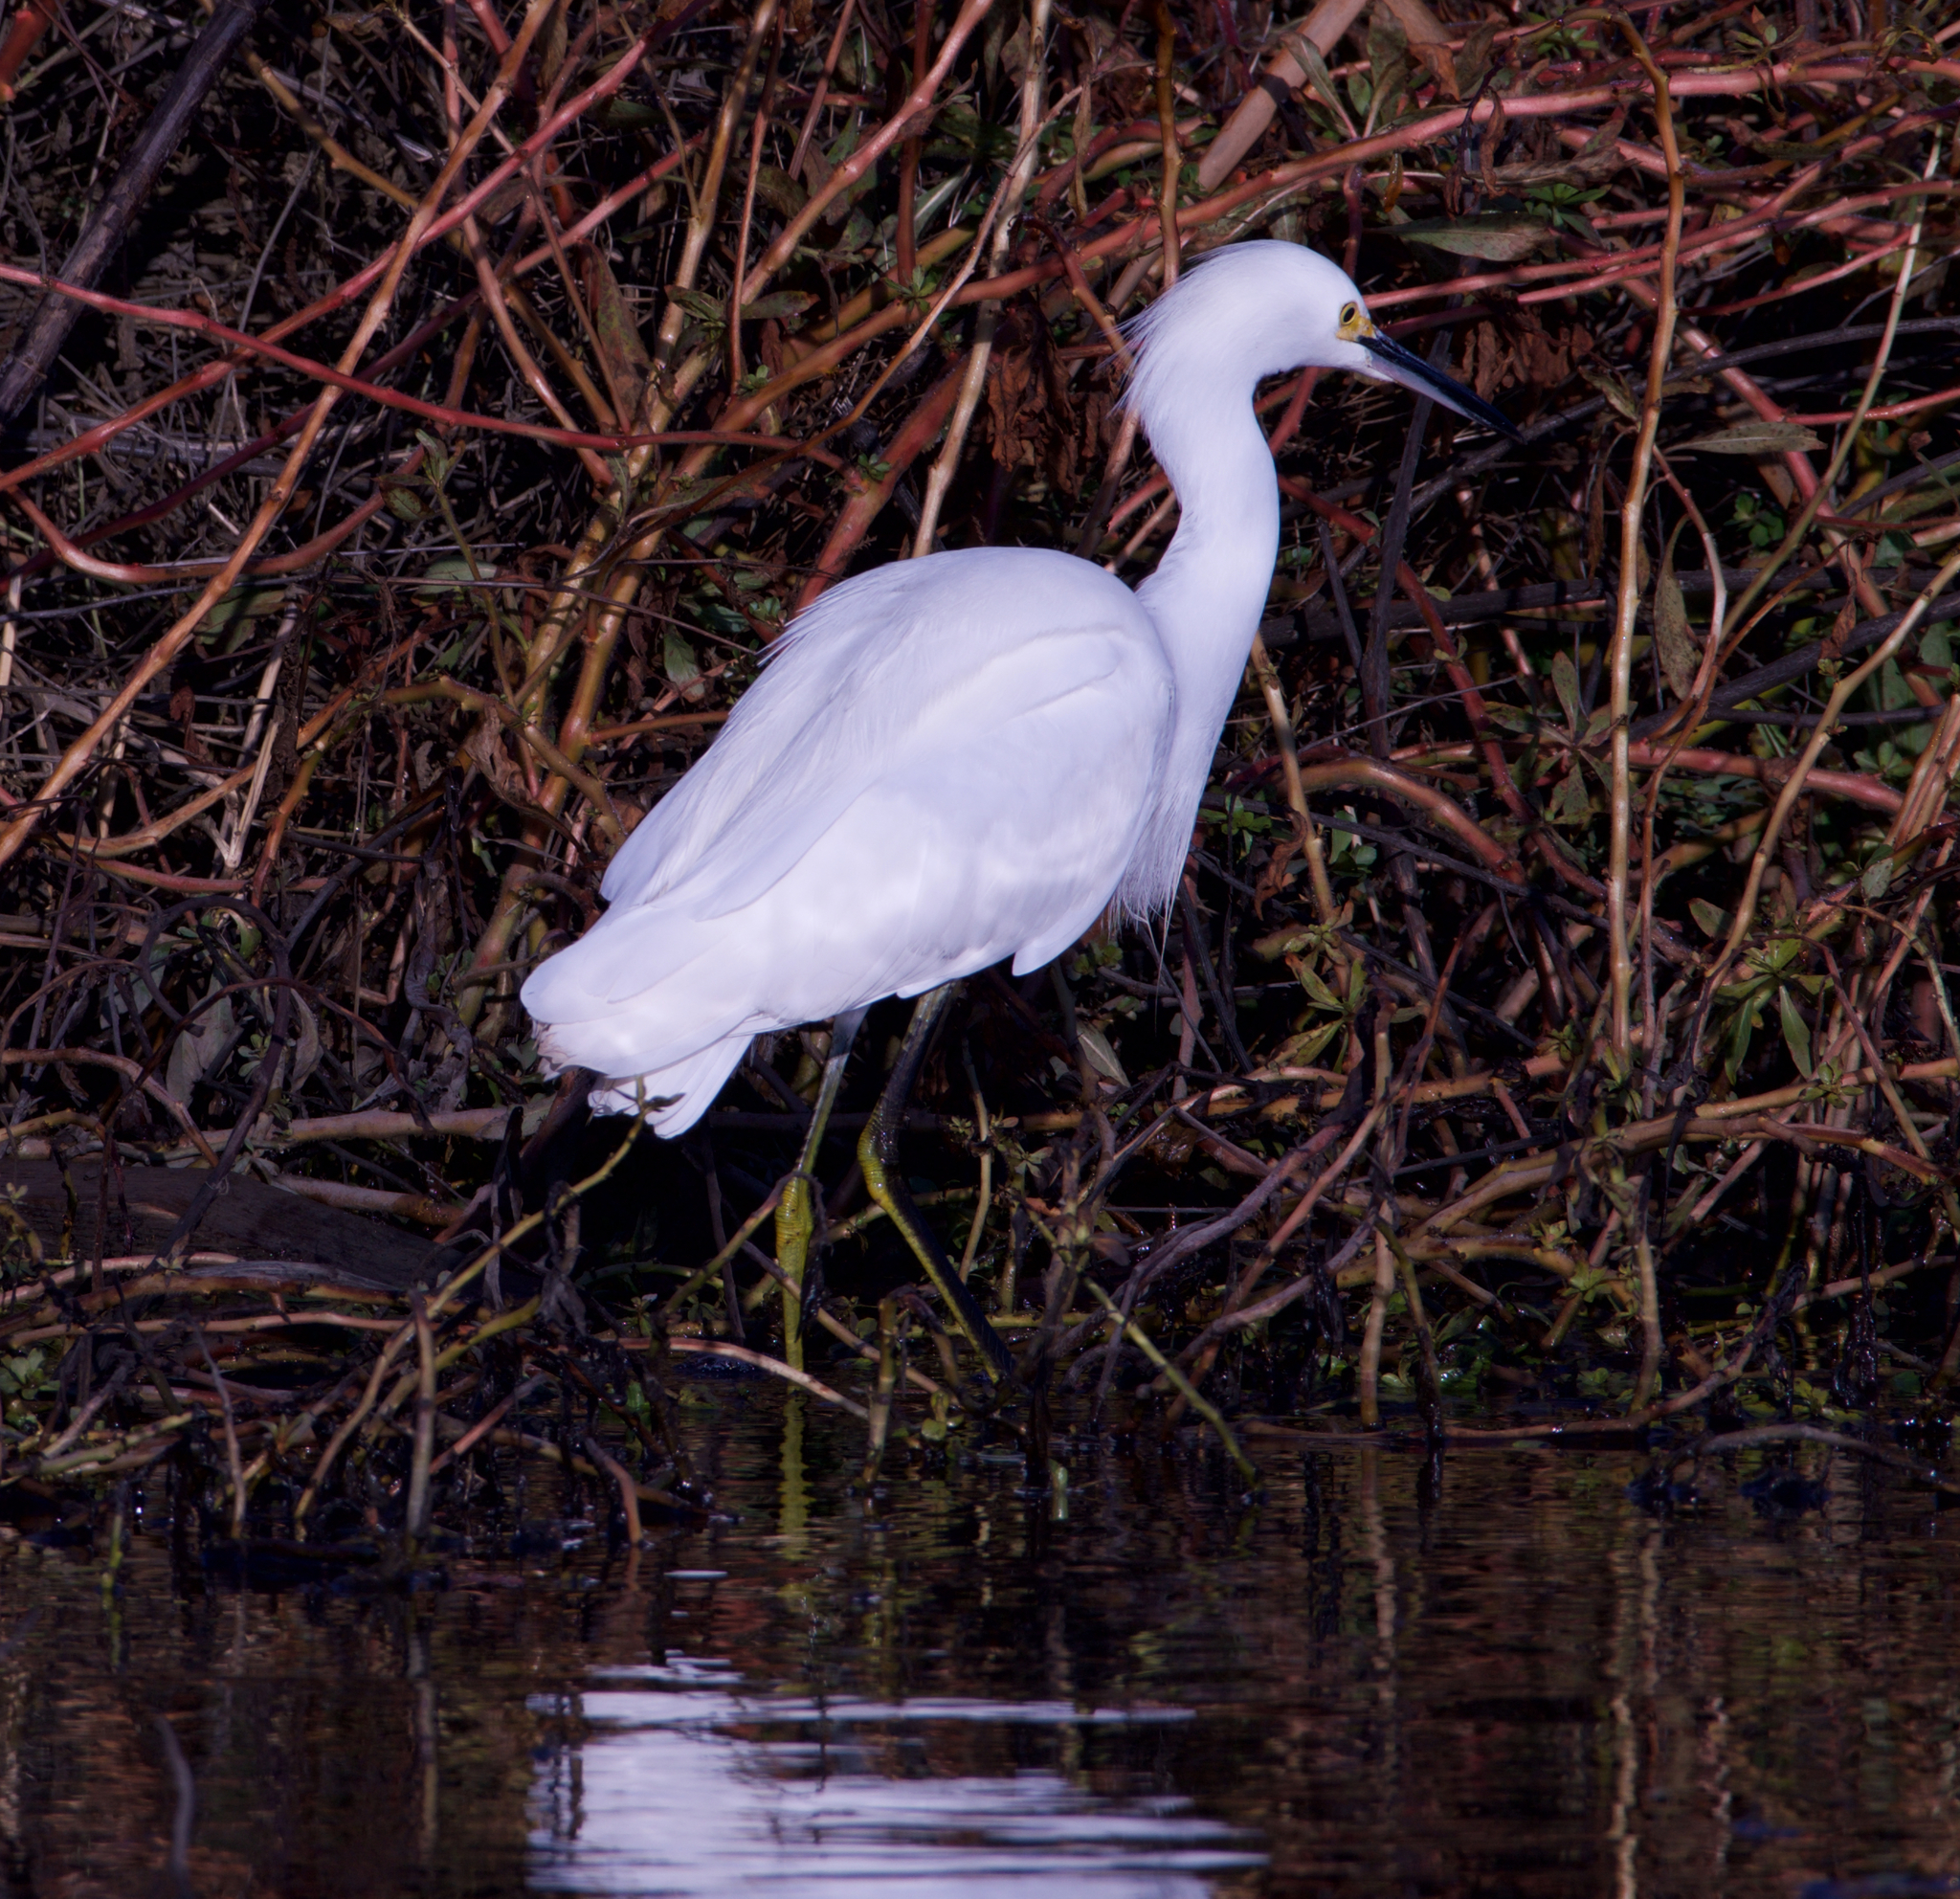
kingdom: Animalia
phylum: Chordata
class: Aves
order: Pelecaniformes
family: Ardeidae
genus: Egretta
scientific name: Egretta thula
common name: Snowy egret
